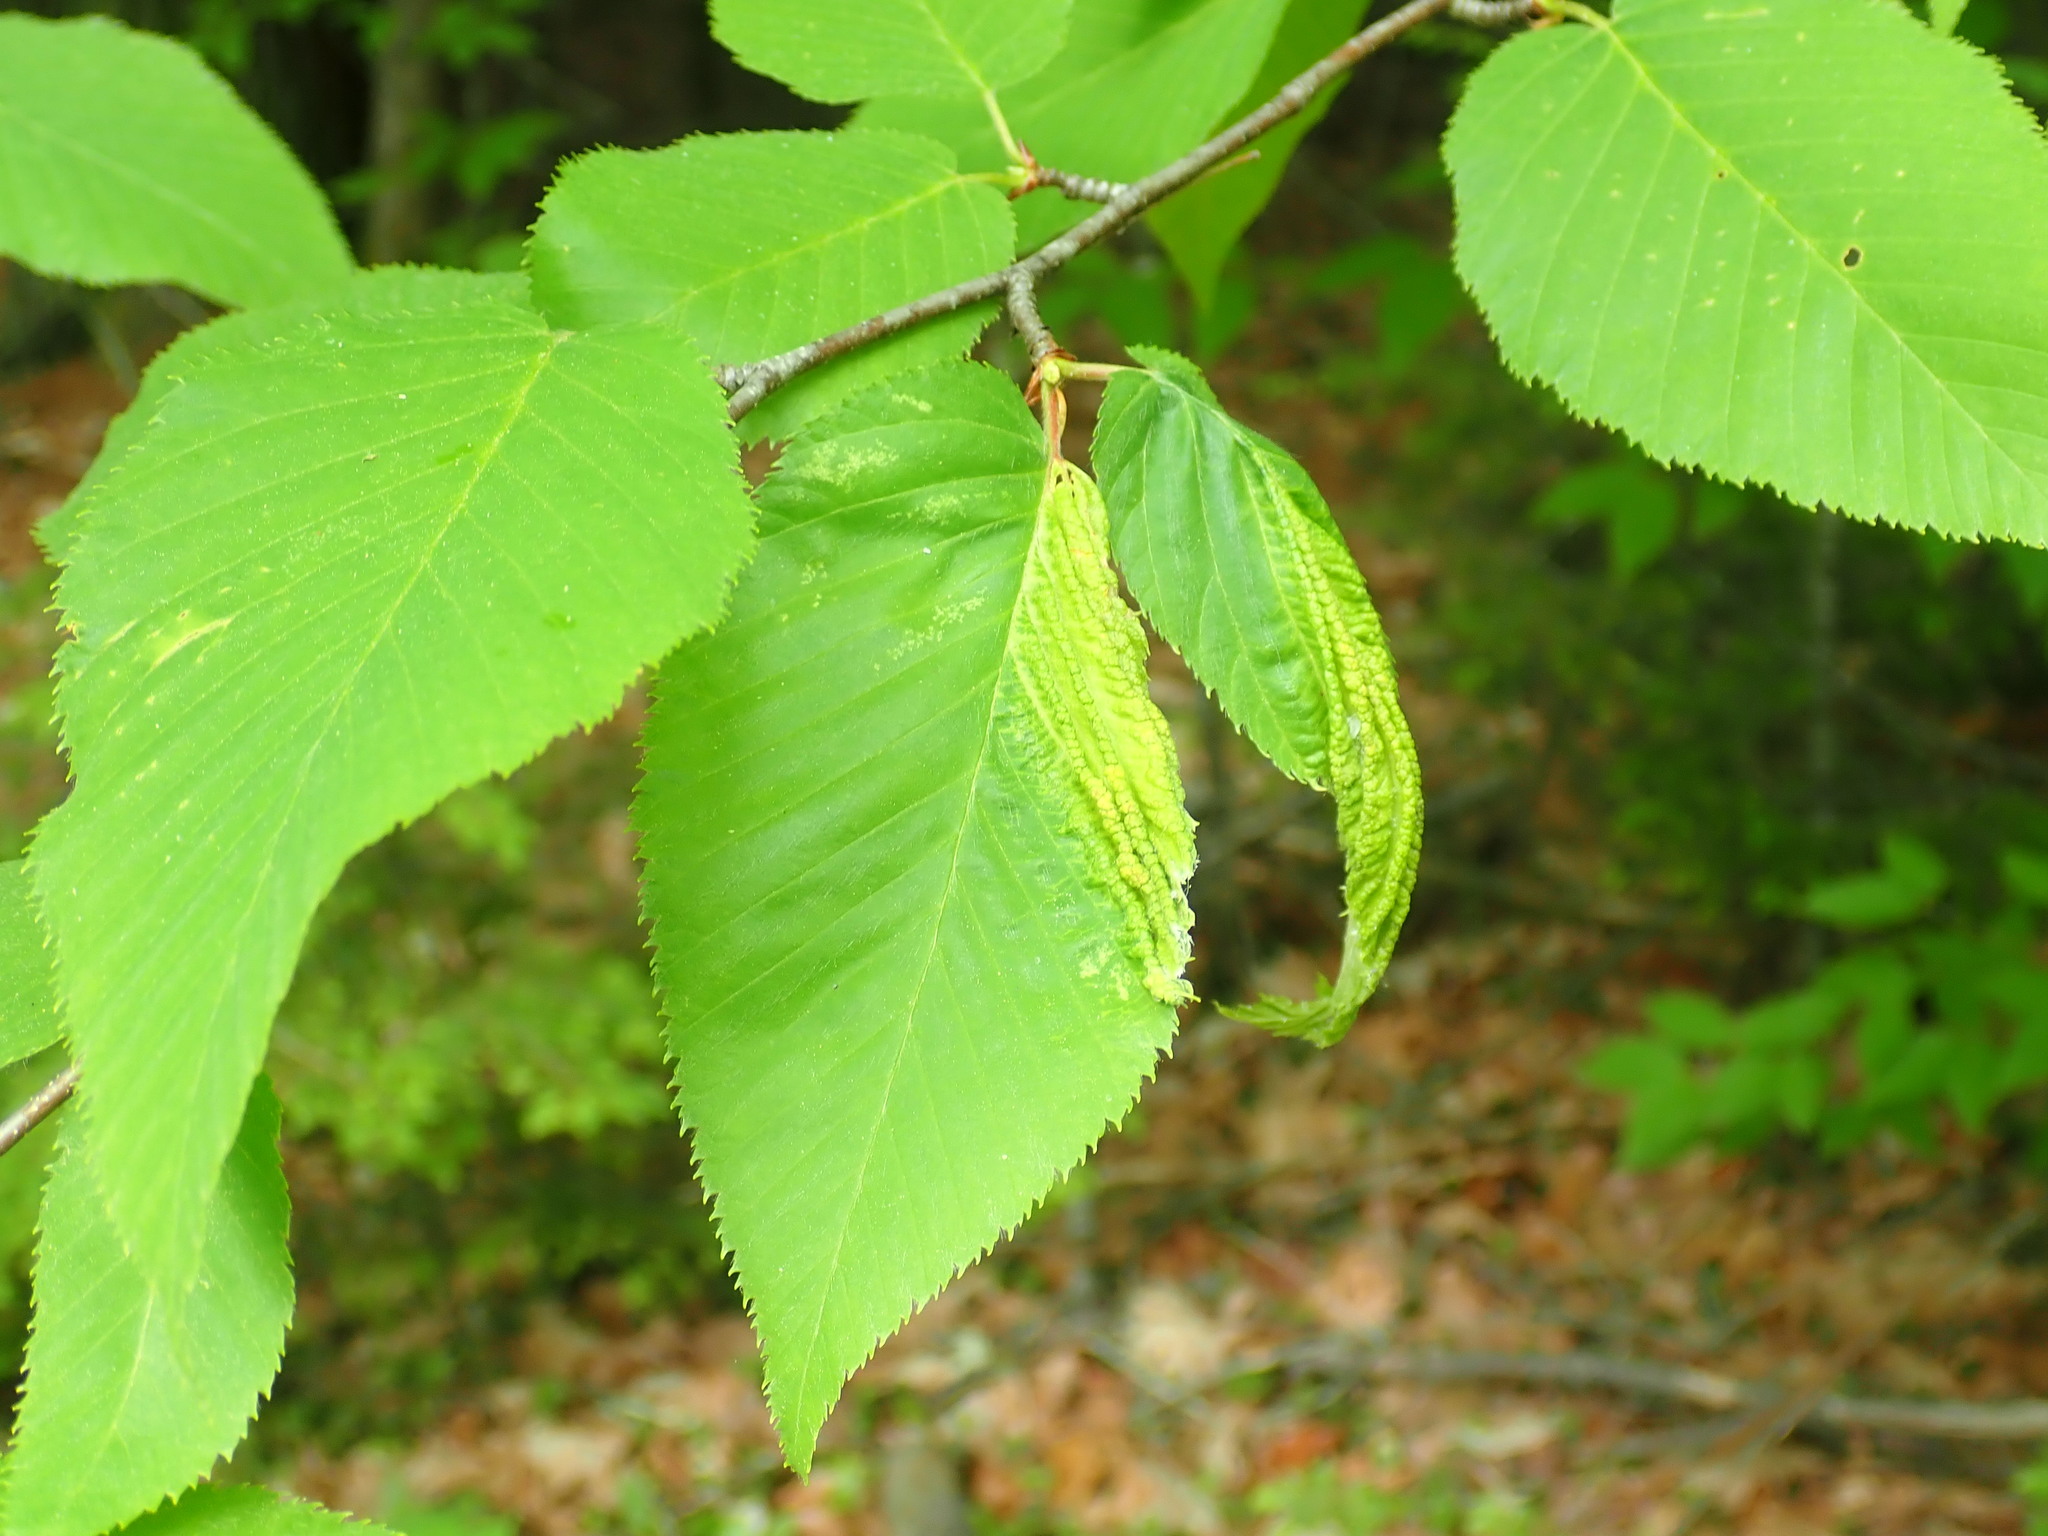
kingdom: Animalia
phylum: Arthropoda
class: Insecta
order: Hemiptera
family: Aphididae
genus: Hamamelistes
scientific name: Hamamelistes spinosus
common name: Witch hazel gall aphid
